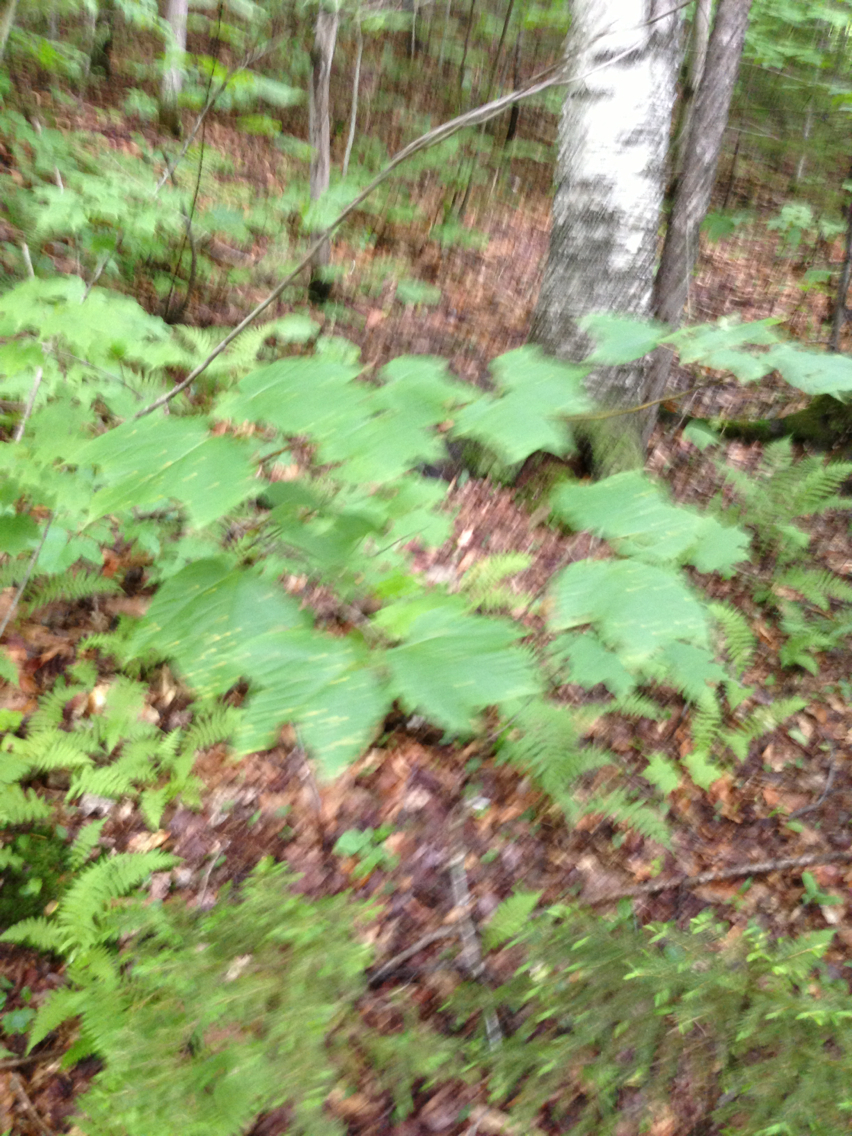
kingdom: Plantae
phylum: Tracheophyta
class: Magnoliopsida
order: Sapindales
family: Sapindaceae
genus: Acer
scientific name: Acer pensylvanicum
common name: Moosewood
